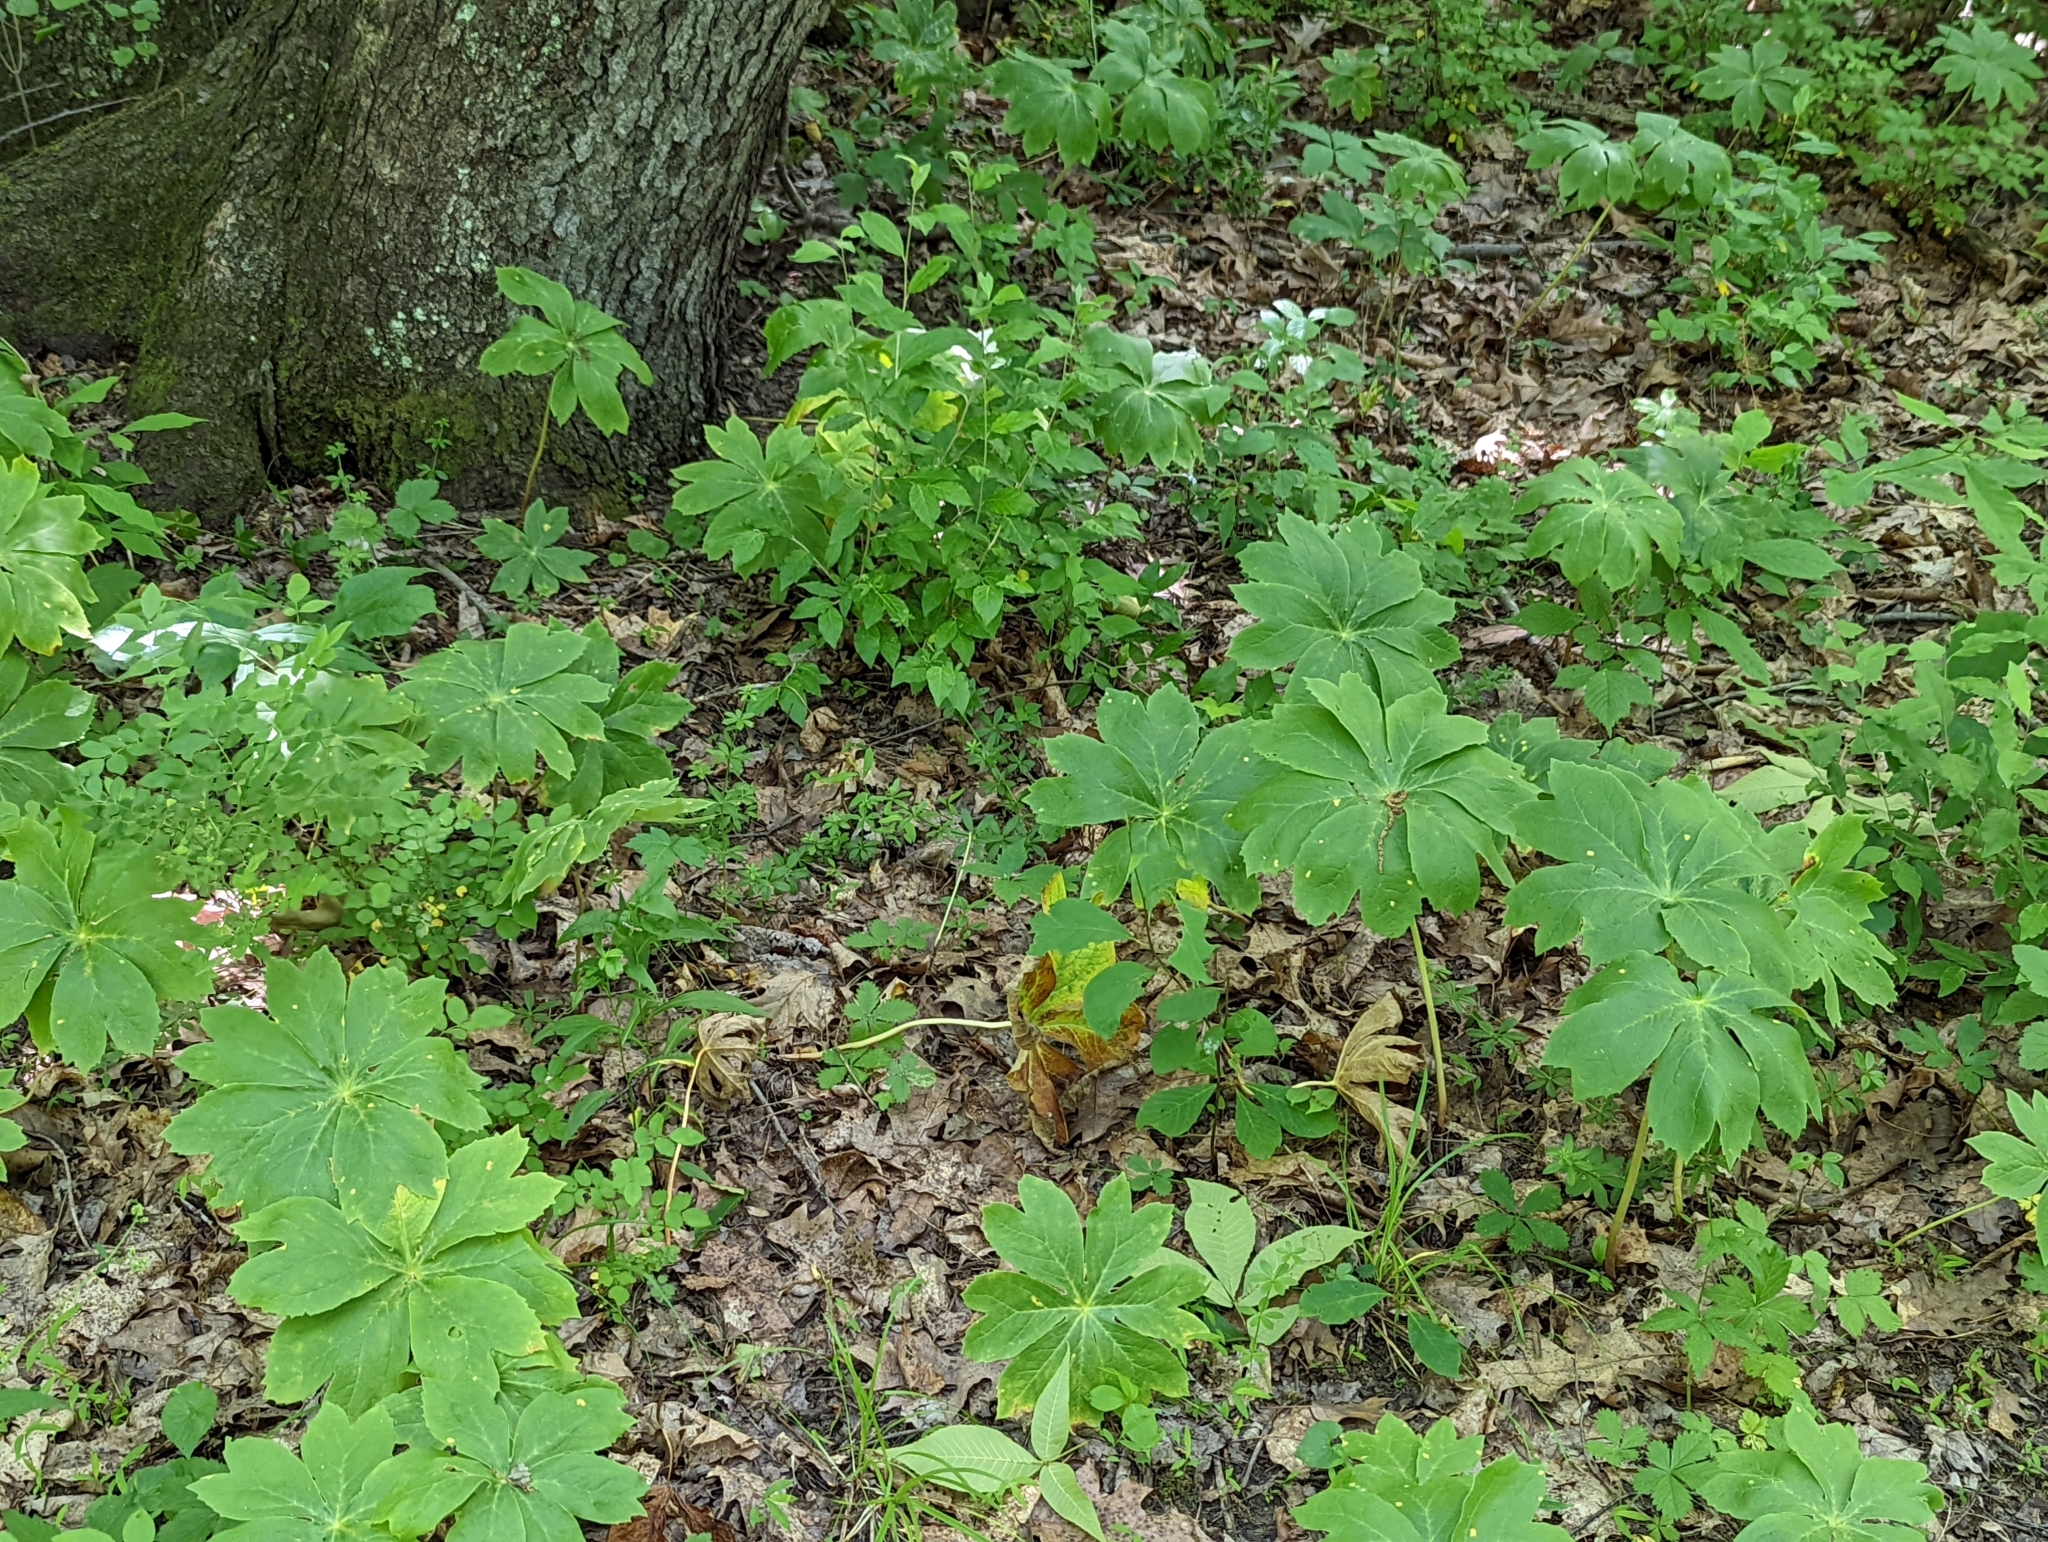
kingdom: Plantae
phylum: Tracheophyta
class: Magnoliopsida
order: Ranunculales
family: Berberidaceae
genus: Podophyllum
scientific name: Podophyllum peltatum
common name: Wild mandrake
